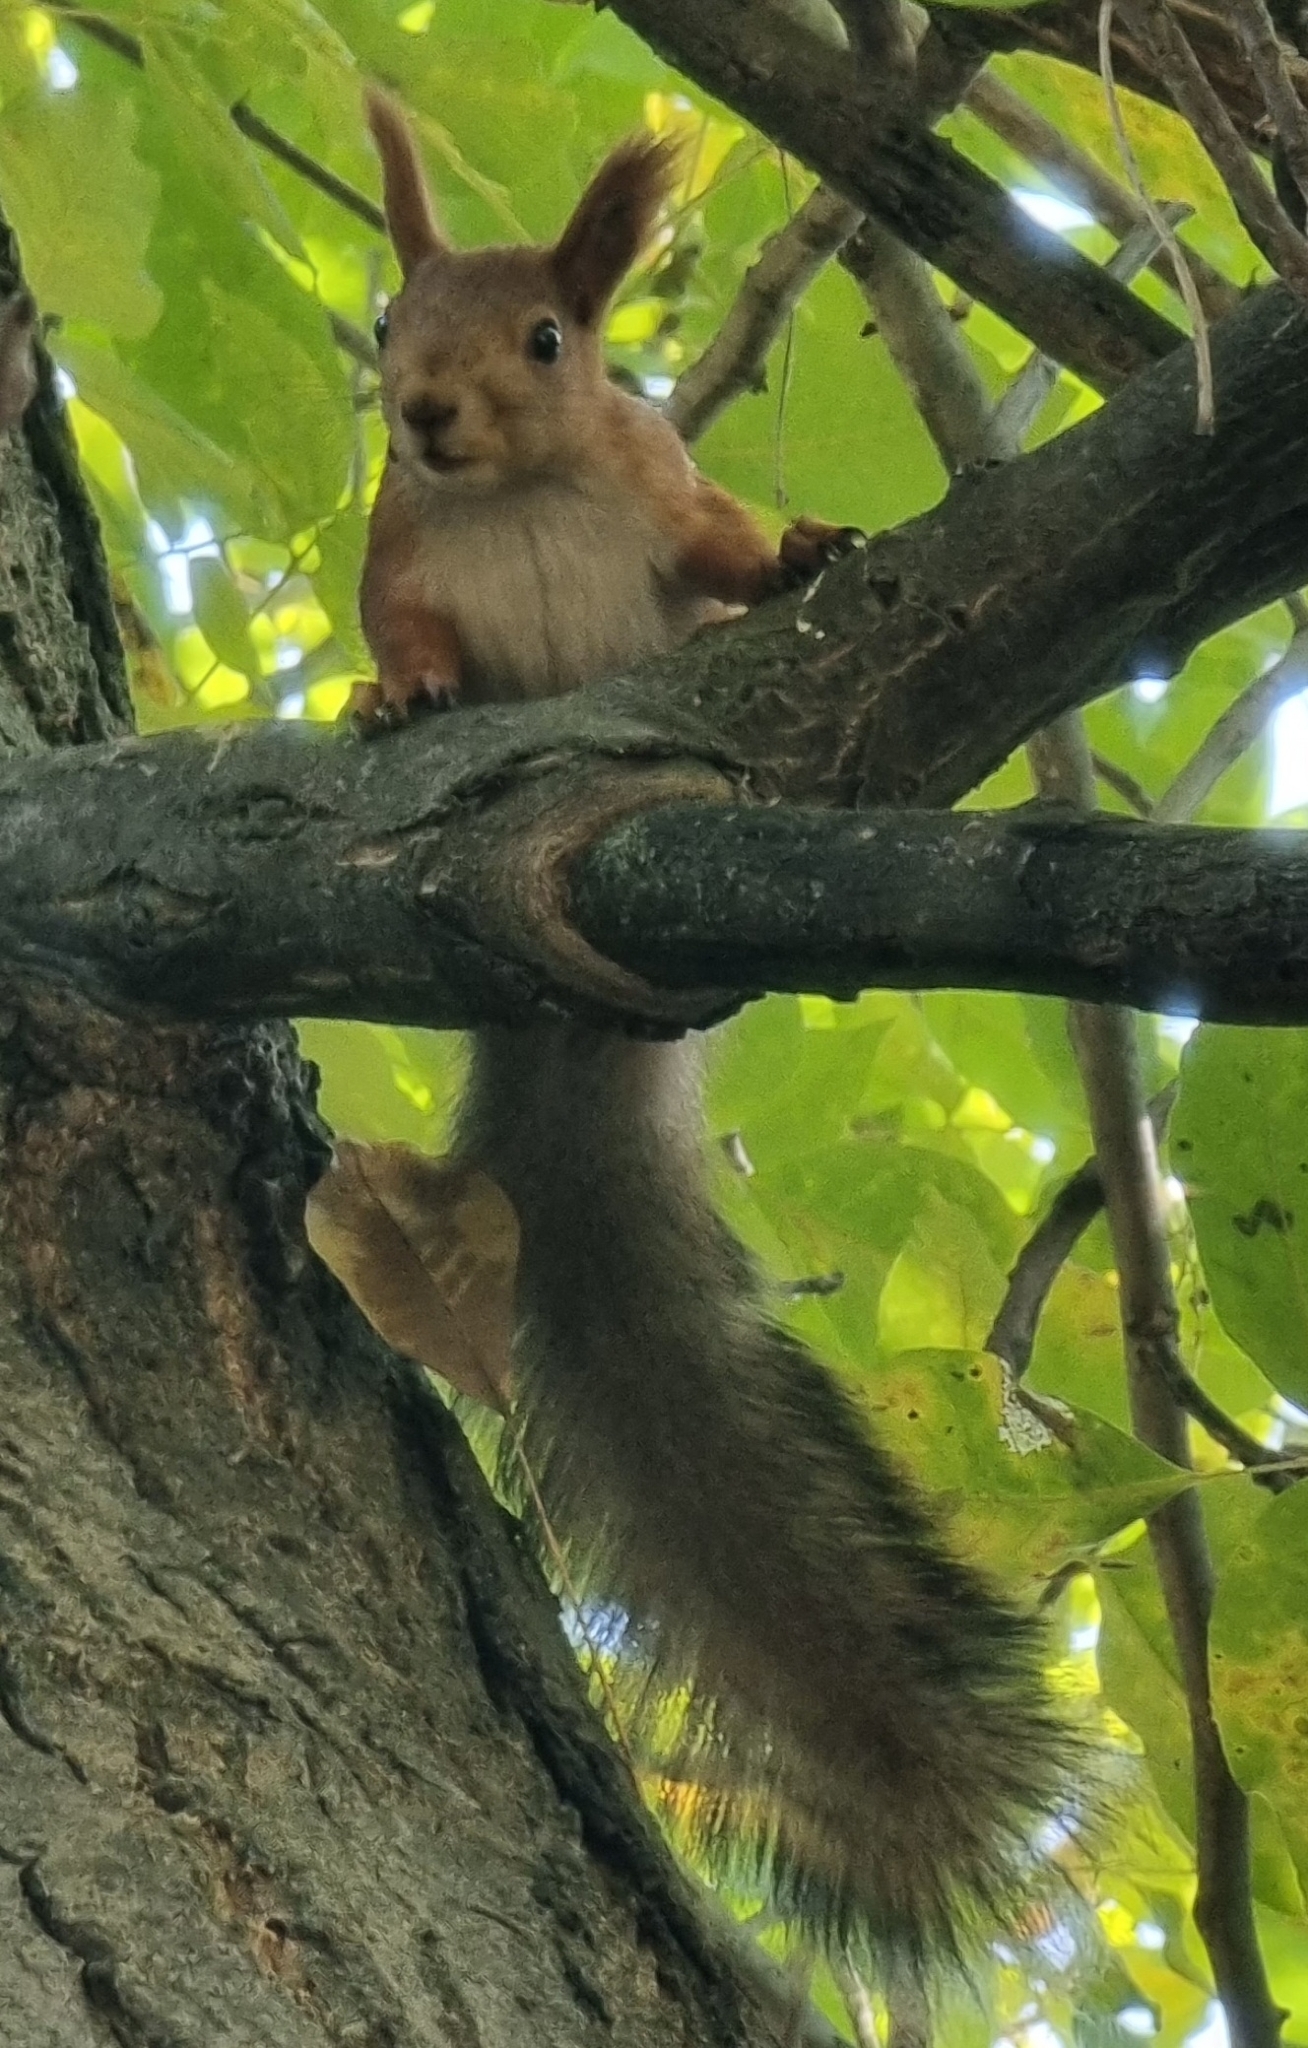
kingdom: Animalia
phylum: Chordata
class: Mammalia
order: Rodentia
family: Sciuridae
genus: Sciurus
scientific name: Sciurus vulgaris
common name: Eurasian red squirrel
